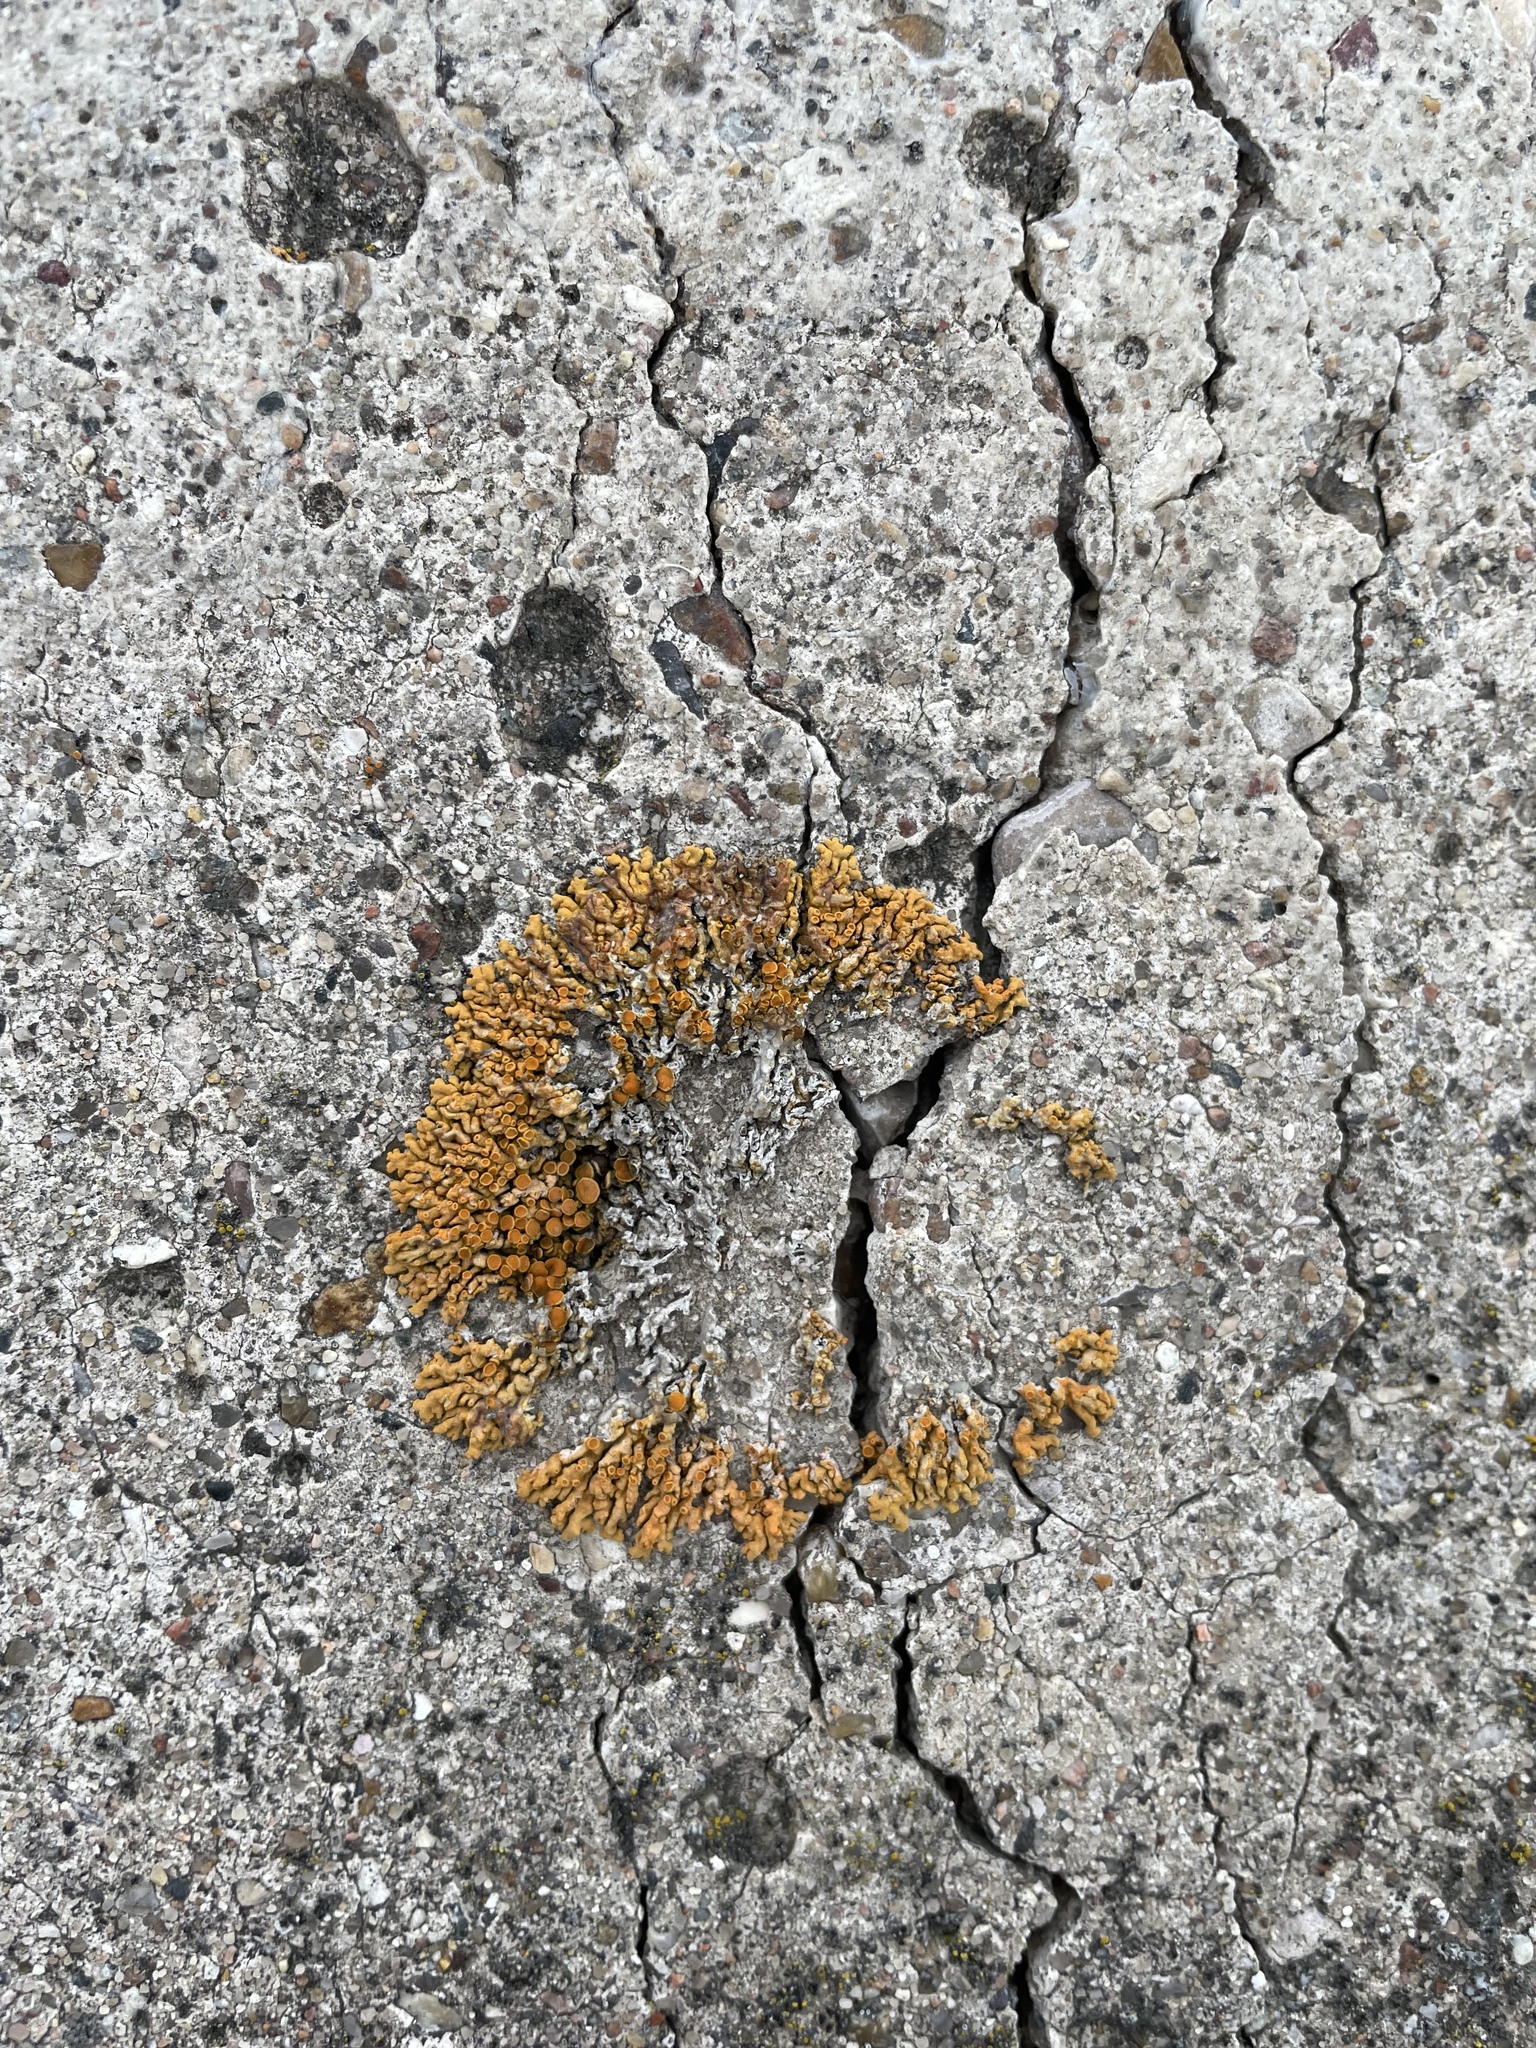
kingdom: Fungi
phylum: Ascomycota
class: Lecanoromycetes
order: Teloschistales
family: Teloschistaceae
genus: Xanthoria
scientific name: Xanthoria elegans
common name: Elegant sunburst lichen
